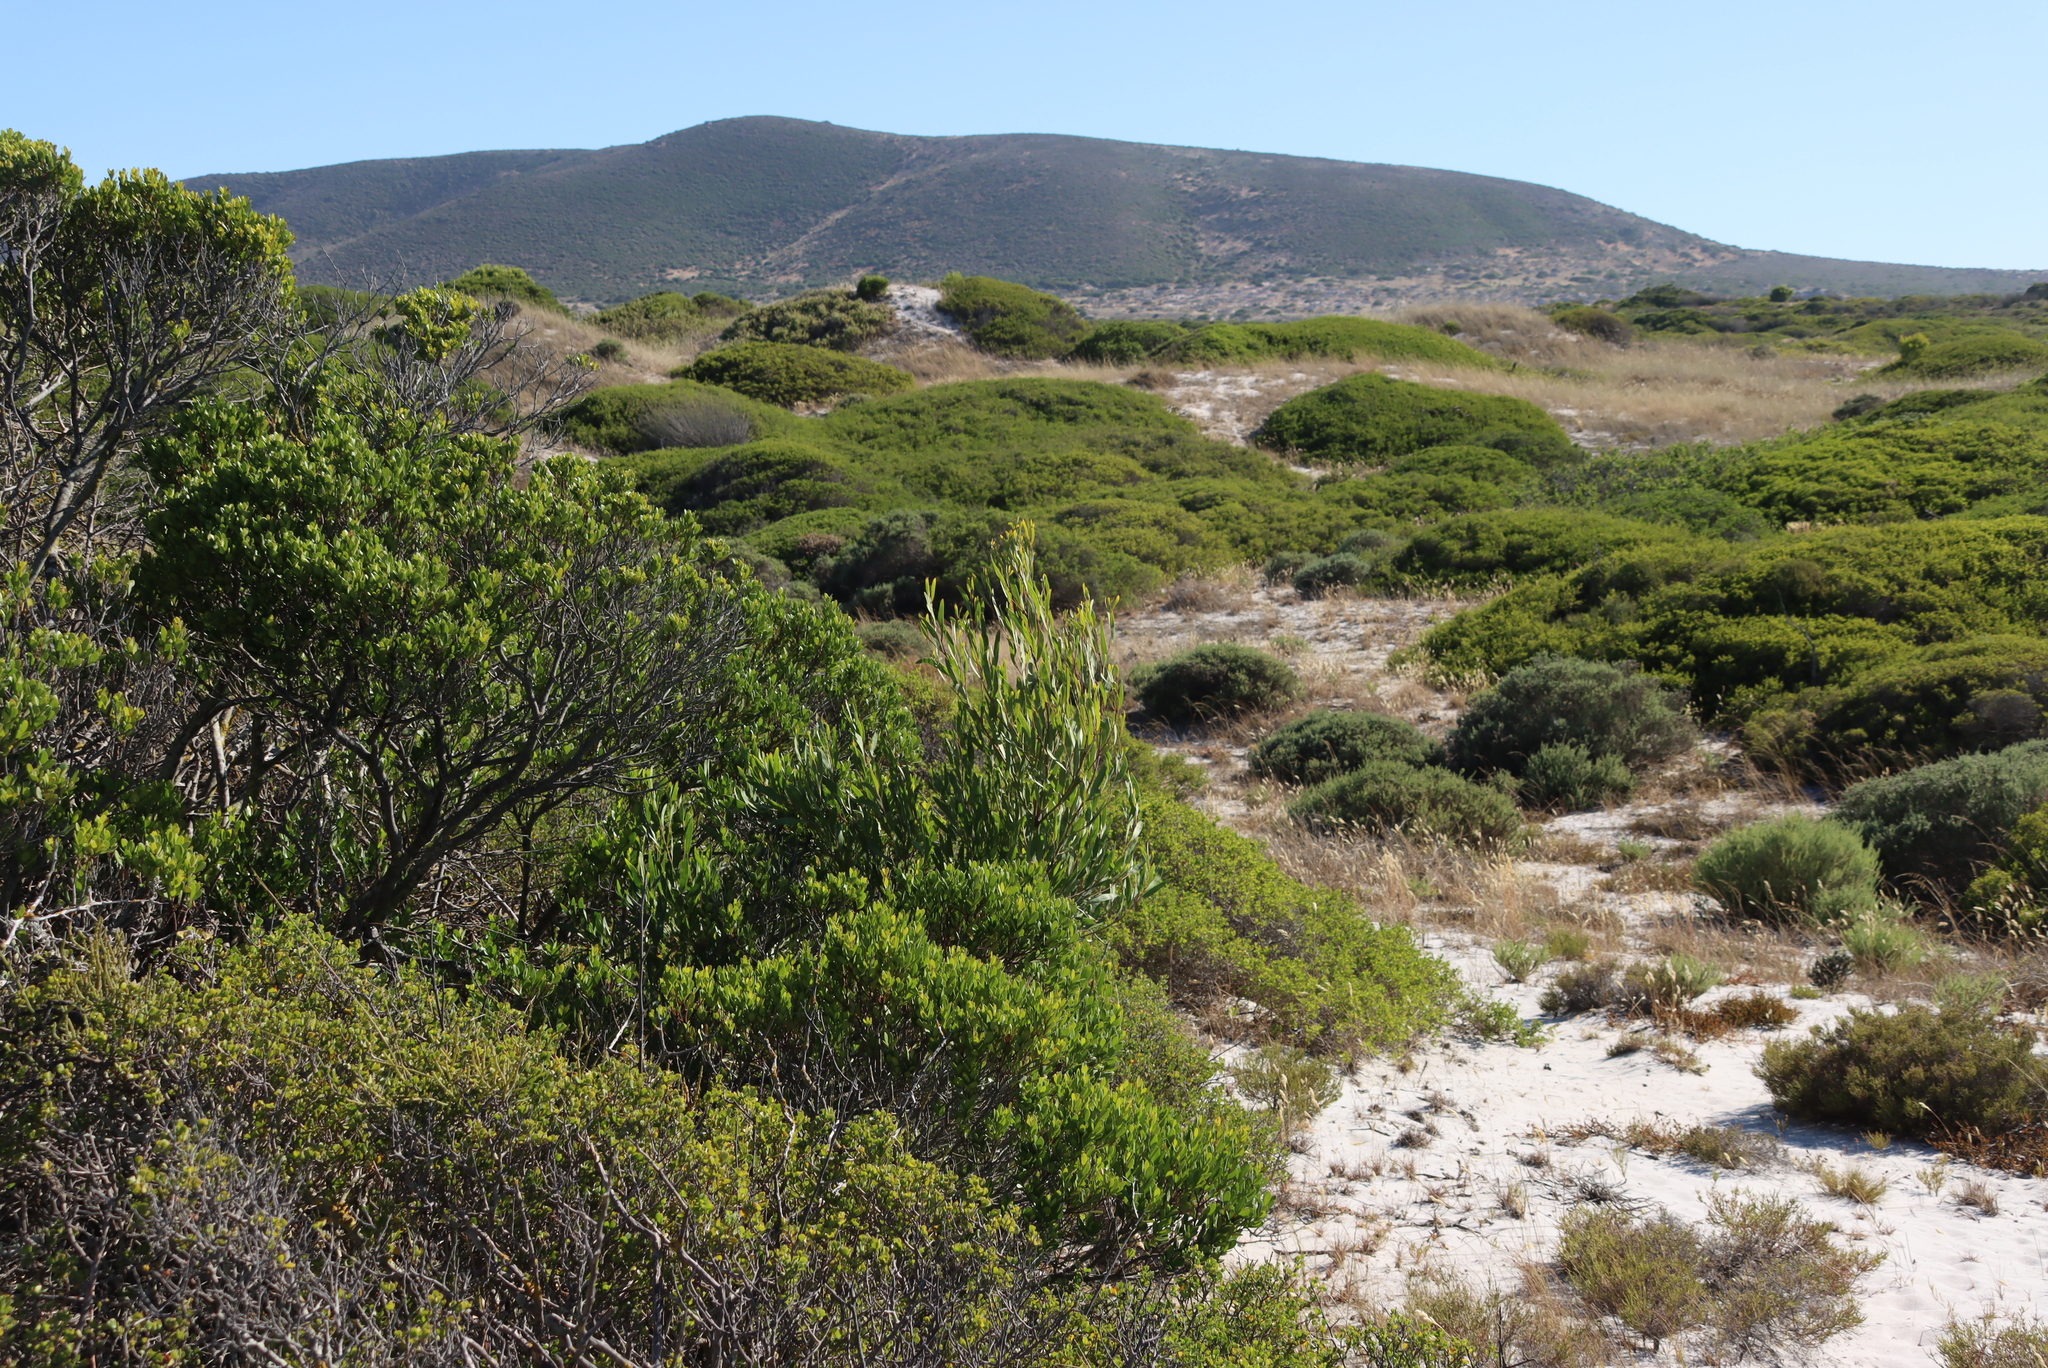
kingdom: Plantae
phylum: Tracheophyta
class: Magnoliopsida
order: Ericales
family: Ebenaceae
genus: Euclea
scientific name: Euclea racemosa
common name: Dune guarri
